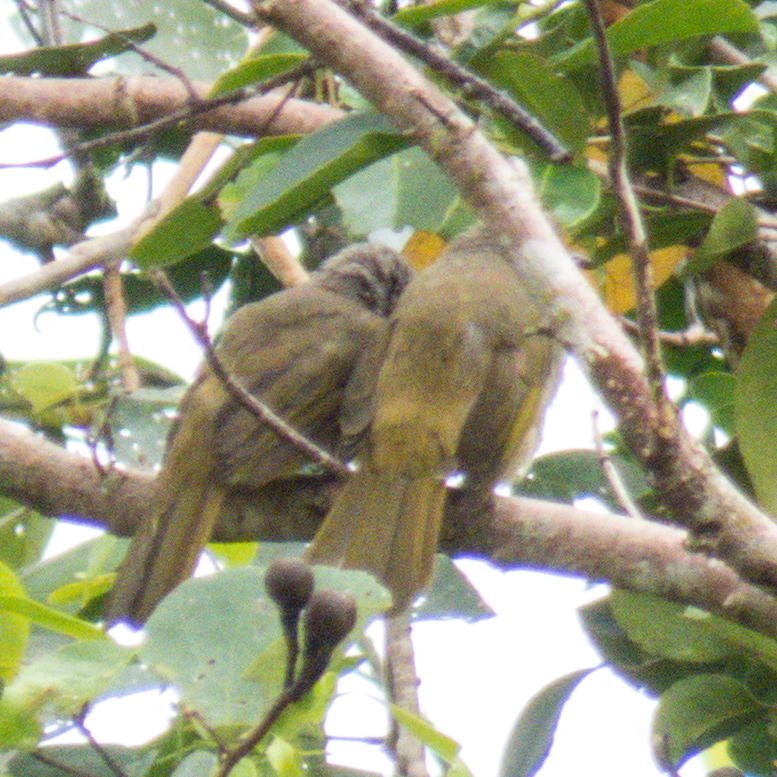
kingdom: Animalia
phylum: Chordata
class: Aves
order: Passeriformes
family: Pycnonotidae
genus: Pycnonotus
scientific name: Pycnonotus finlaysoni
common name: Stripe-throated bulbul
